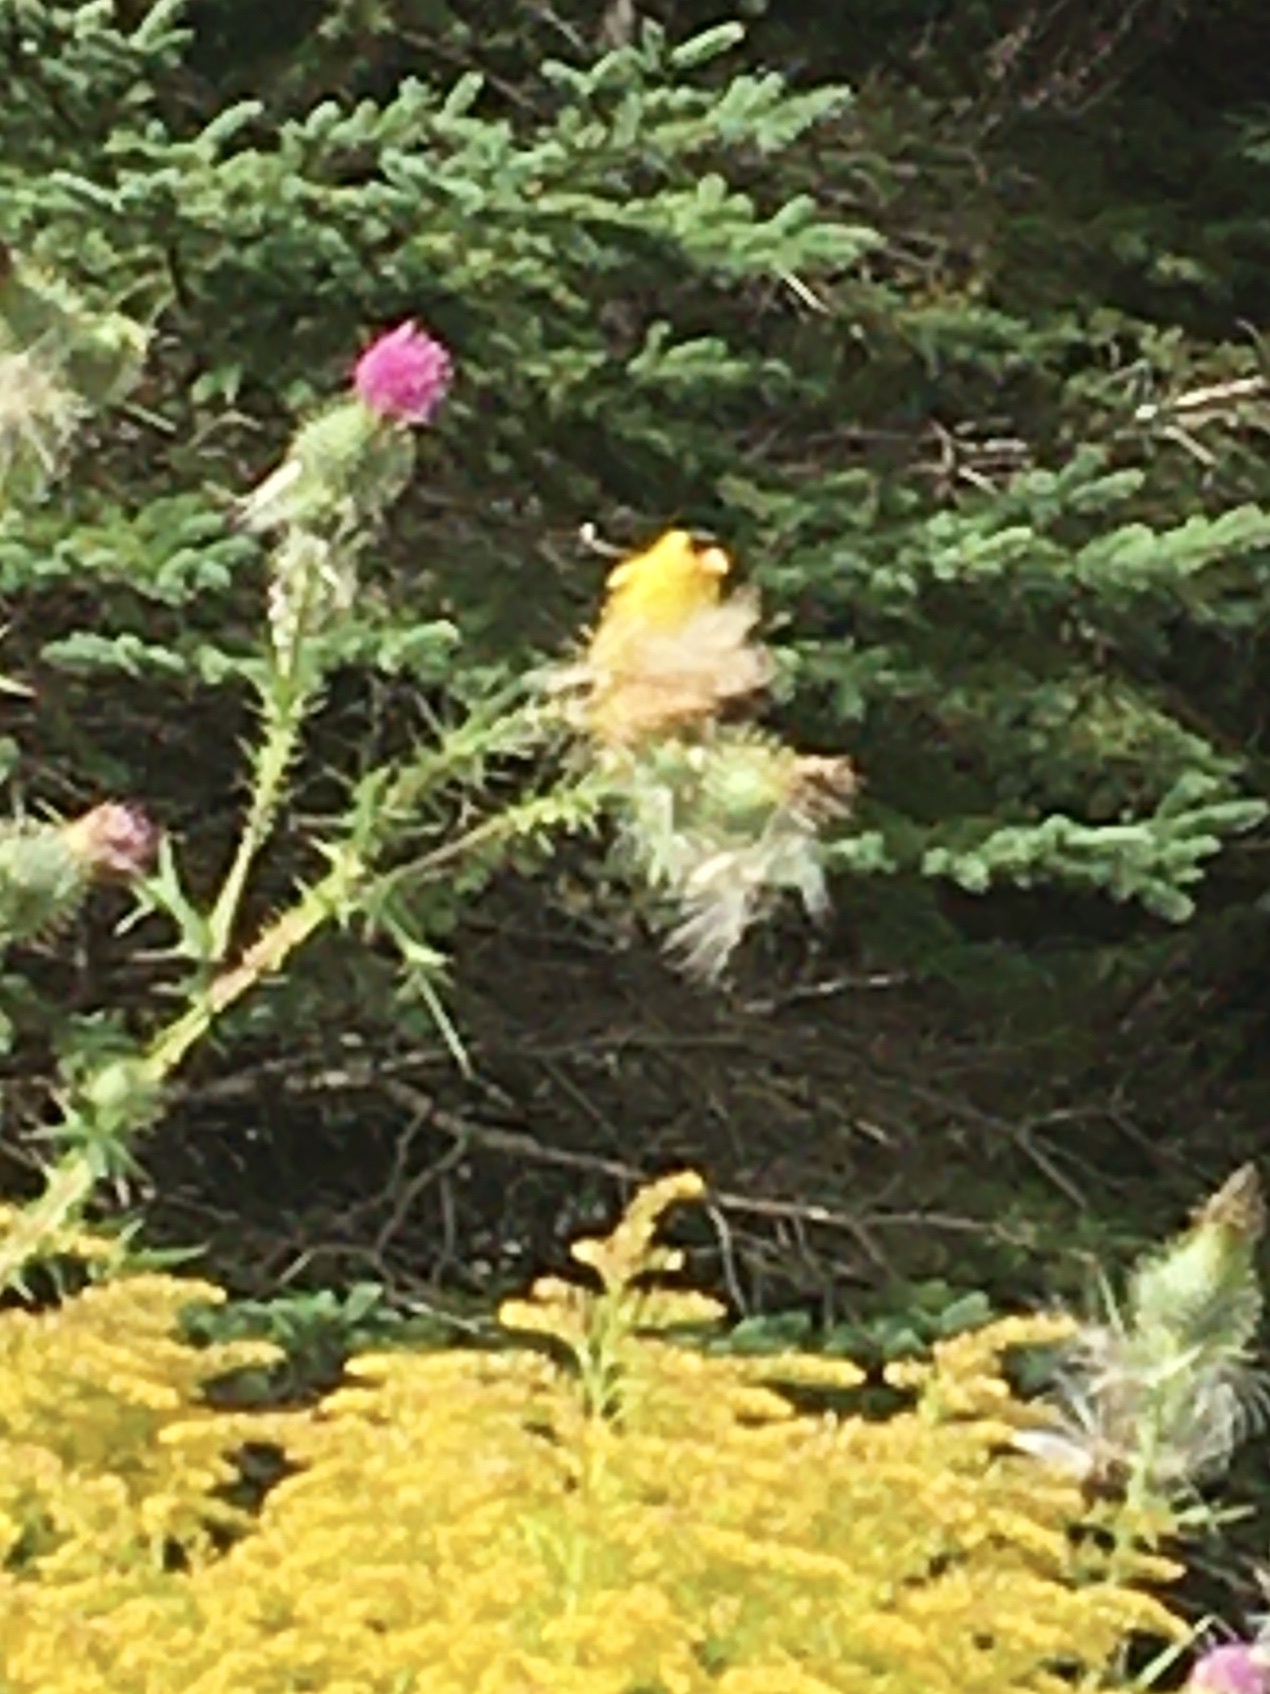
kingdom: Animalia
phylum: Chordata
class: Aves
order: Passeriformes
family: Fringillidae
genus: Spinus
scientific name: Spinus tristis
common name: American goldfinch
